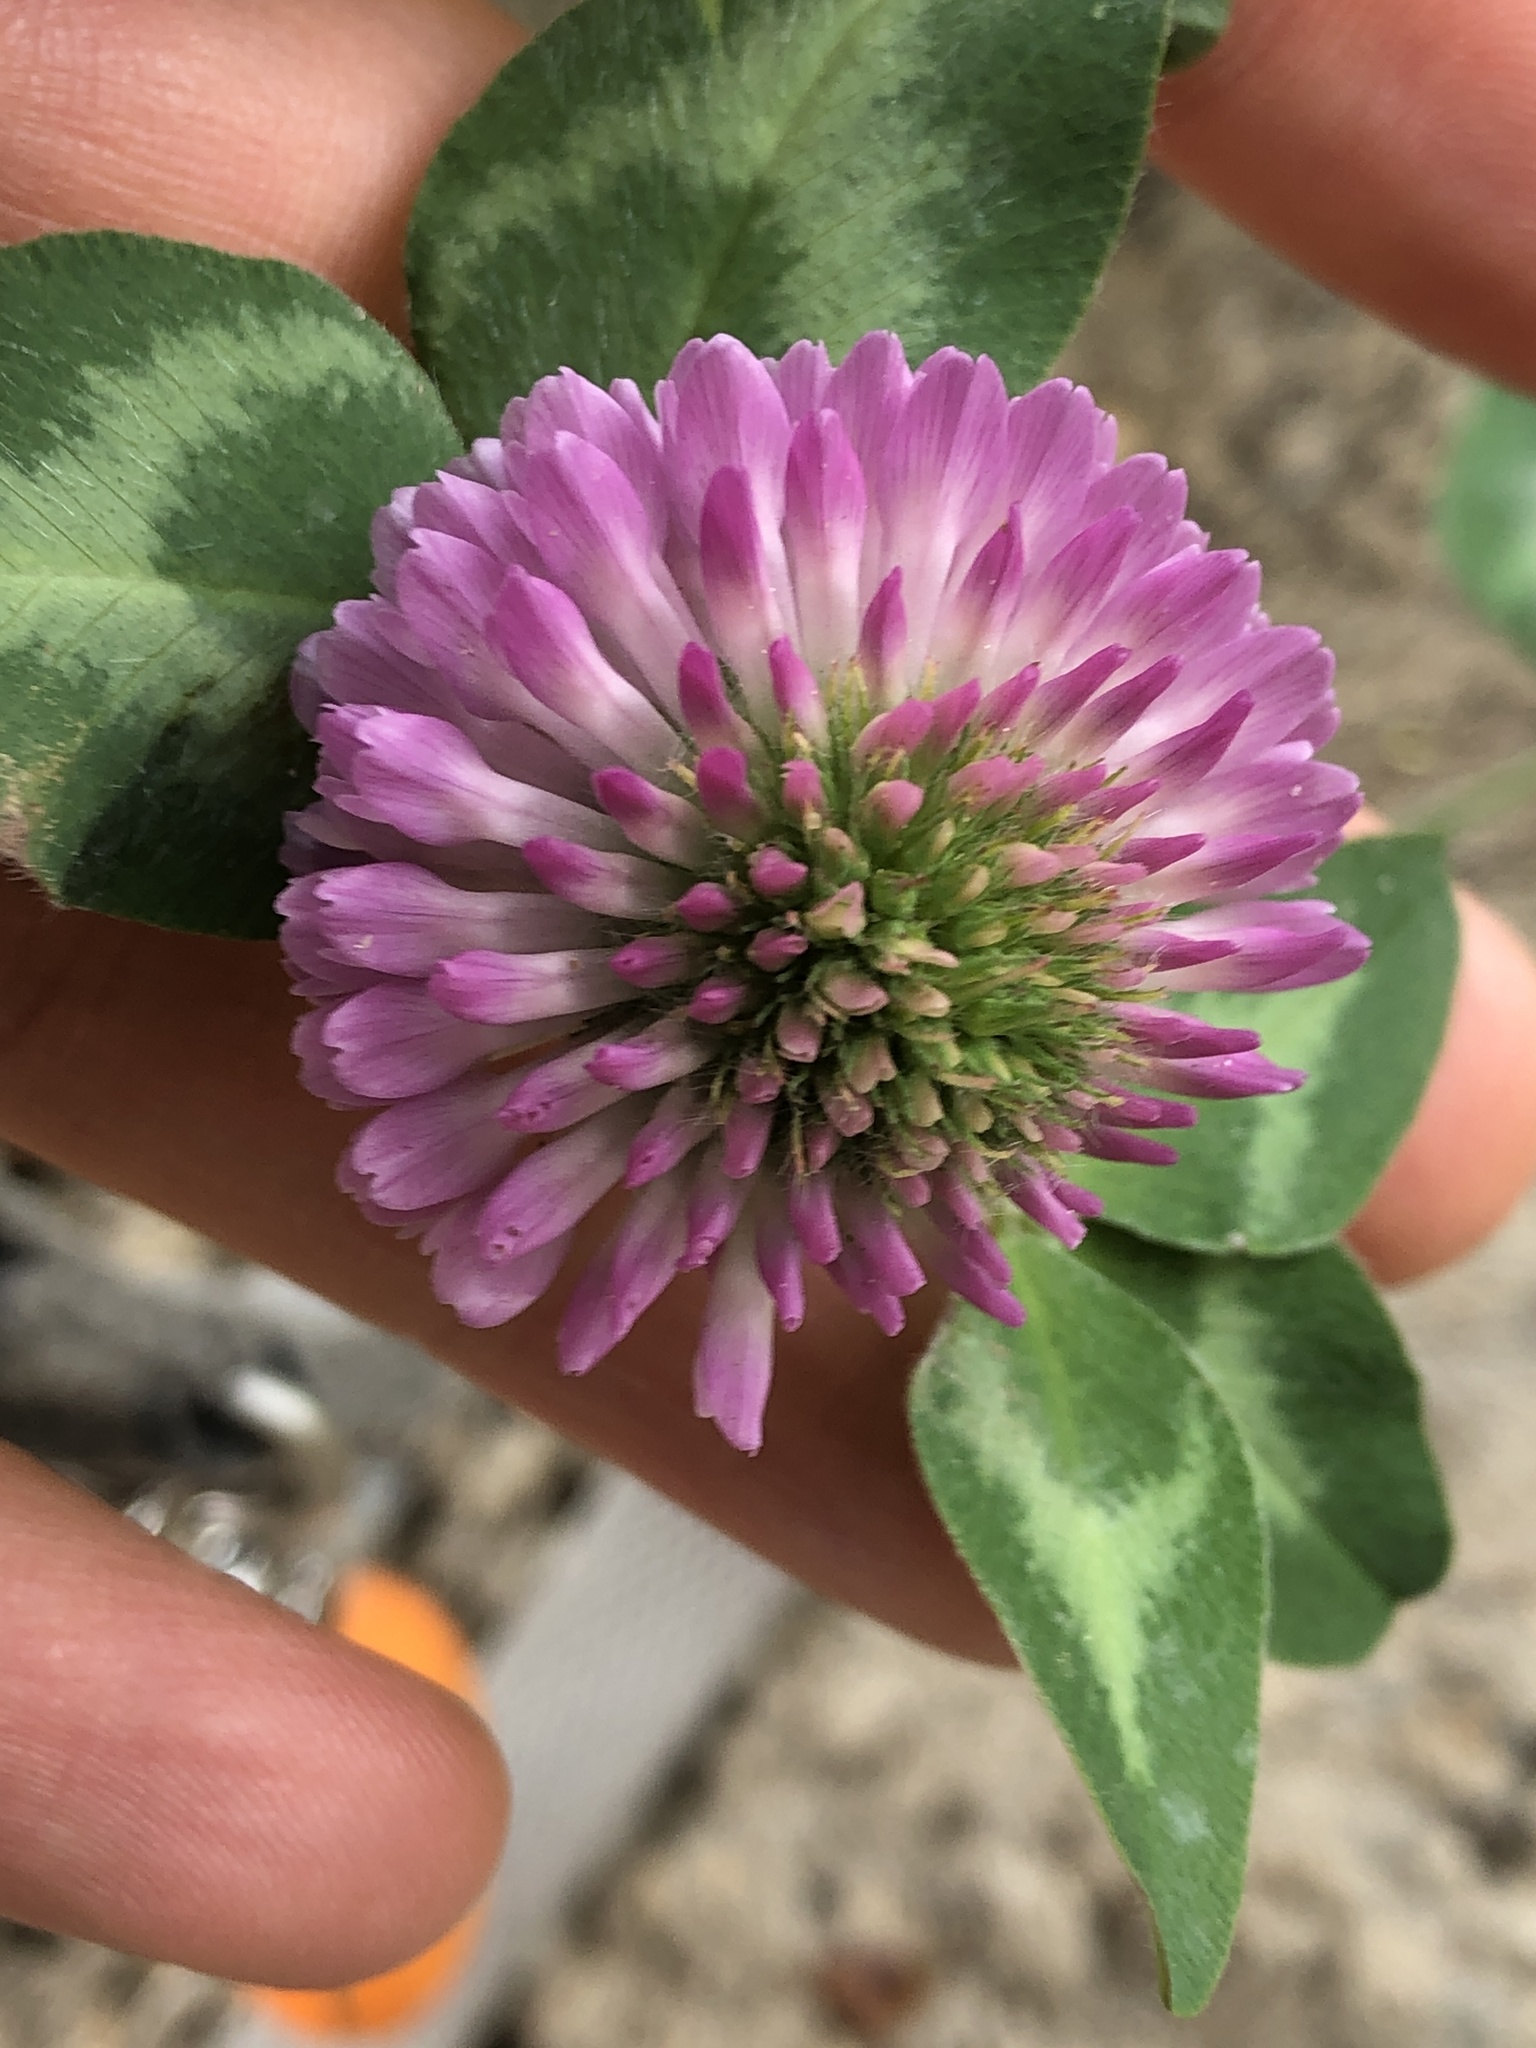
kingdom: Plantae
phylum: Tracheophyta
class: Magnoliopsida
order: Fabales
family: Fabaceae
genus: Trifolium
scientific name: Trifolium pratense
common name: Red clover
